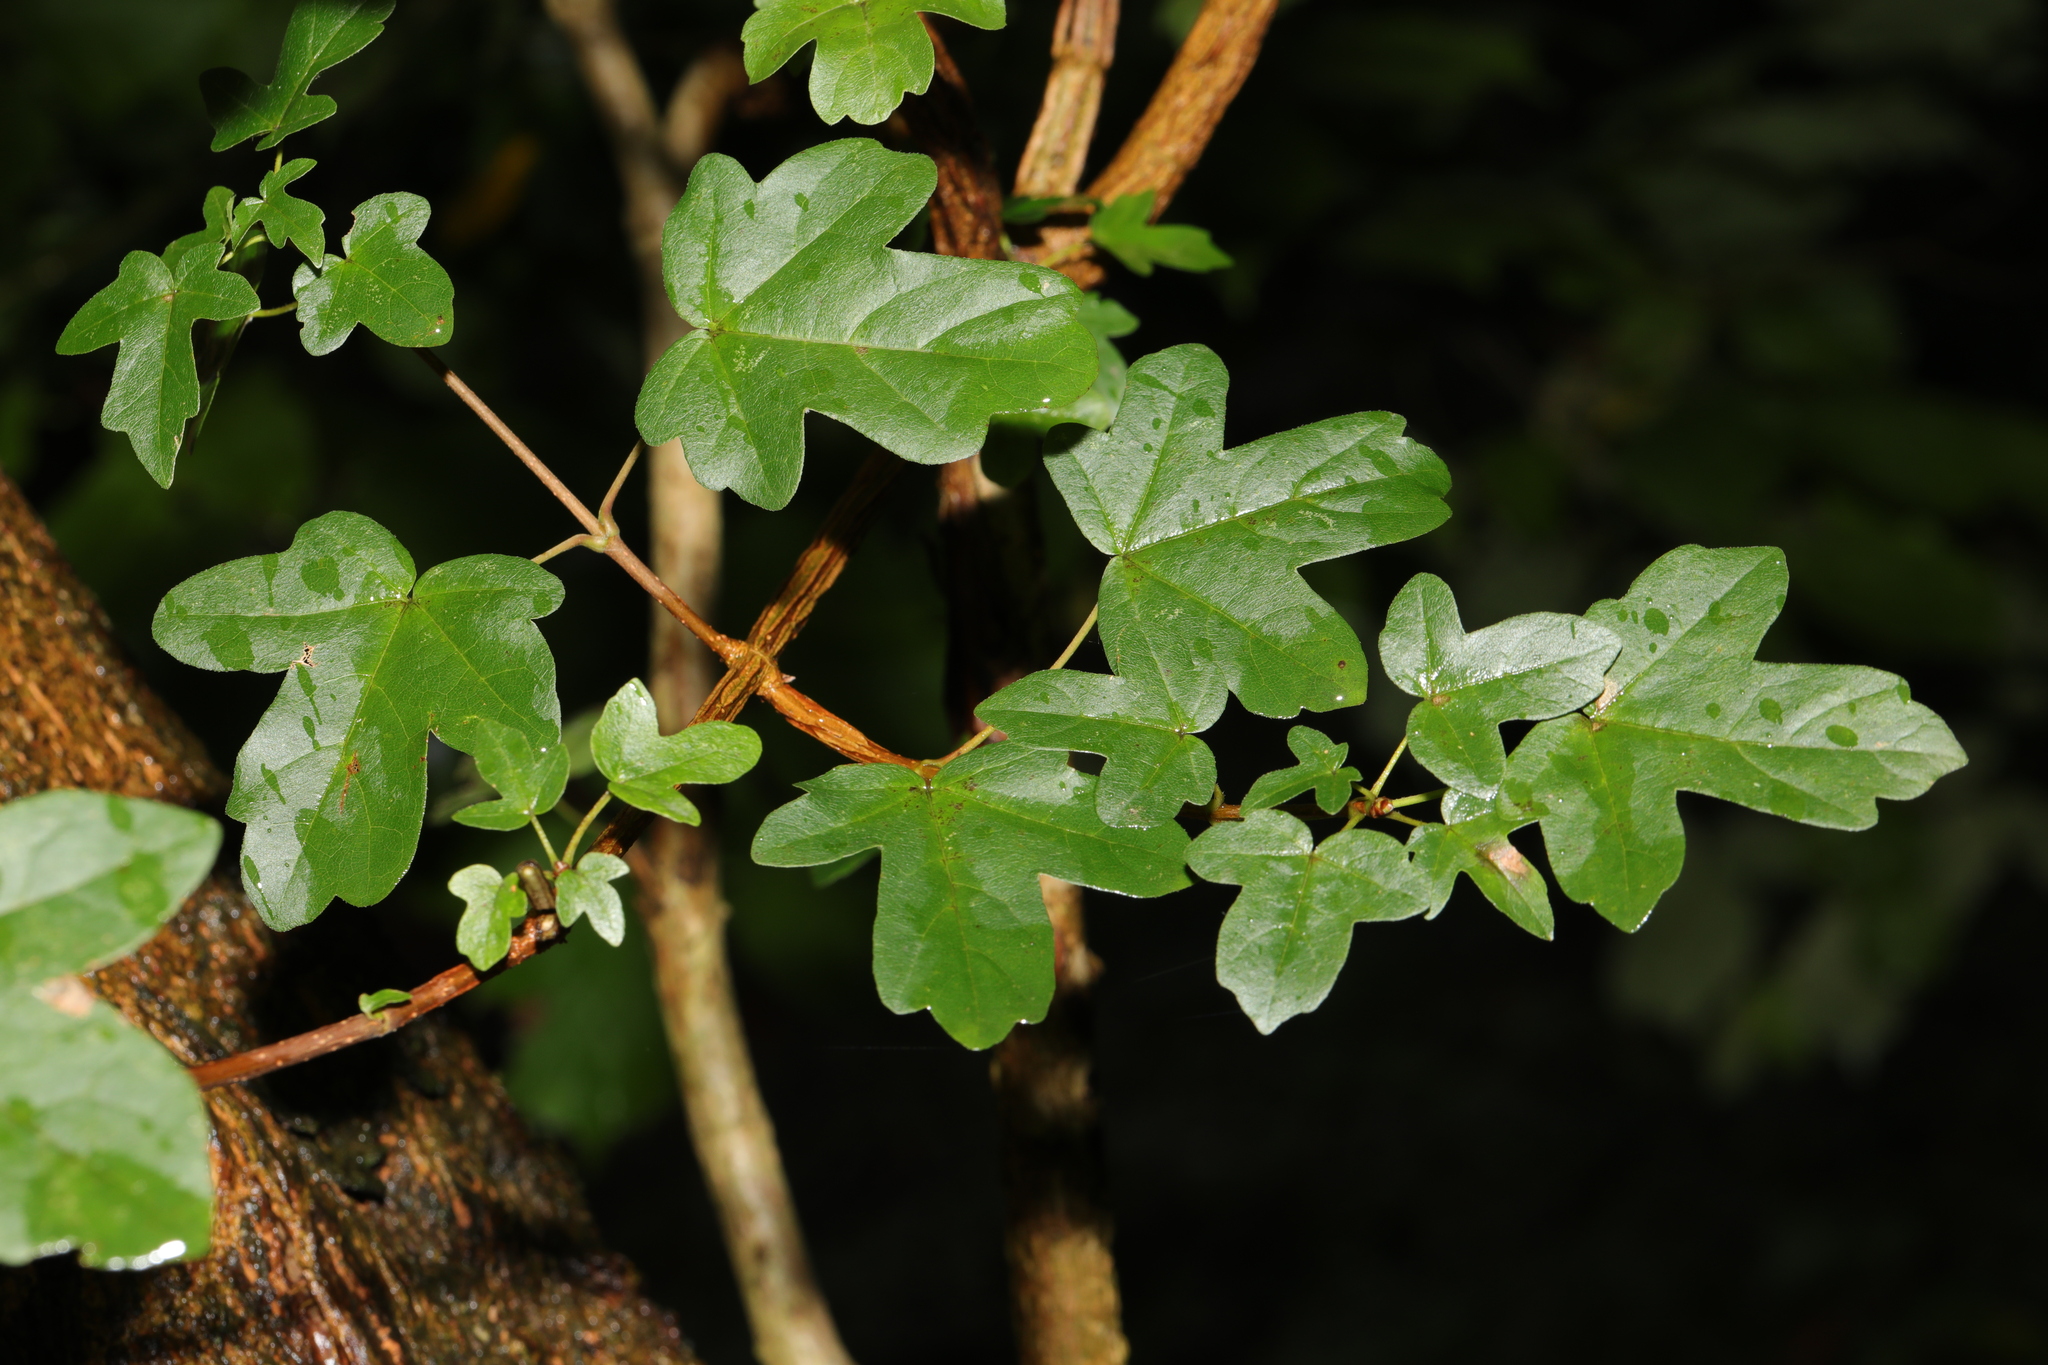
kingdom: Plantae
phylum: Tracheophyta
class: Magnoliopsida
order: Sapindales
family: Sapindaceae
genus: Acer
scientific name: Acer campestre
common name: Field maple
